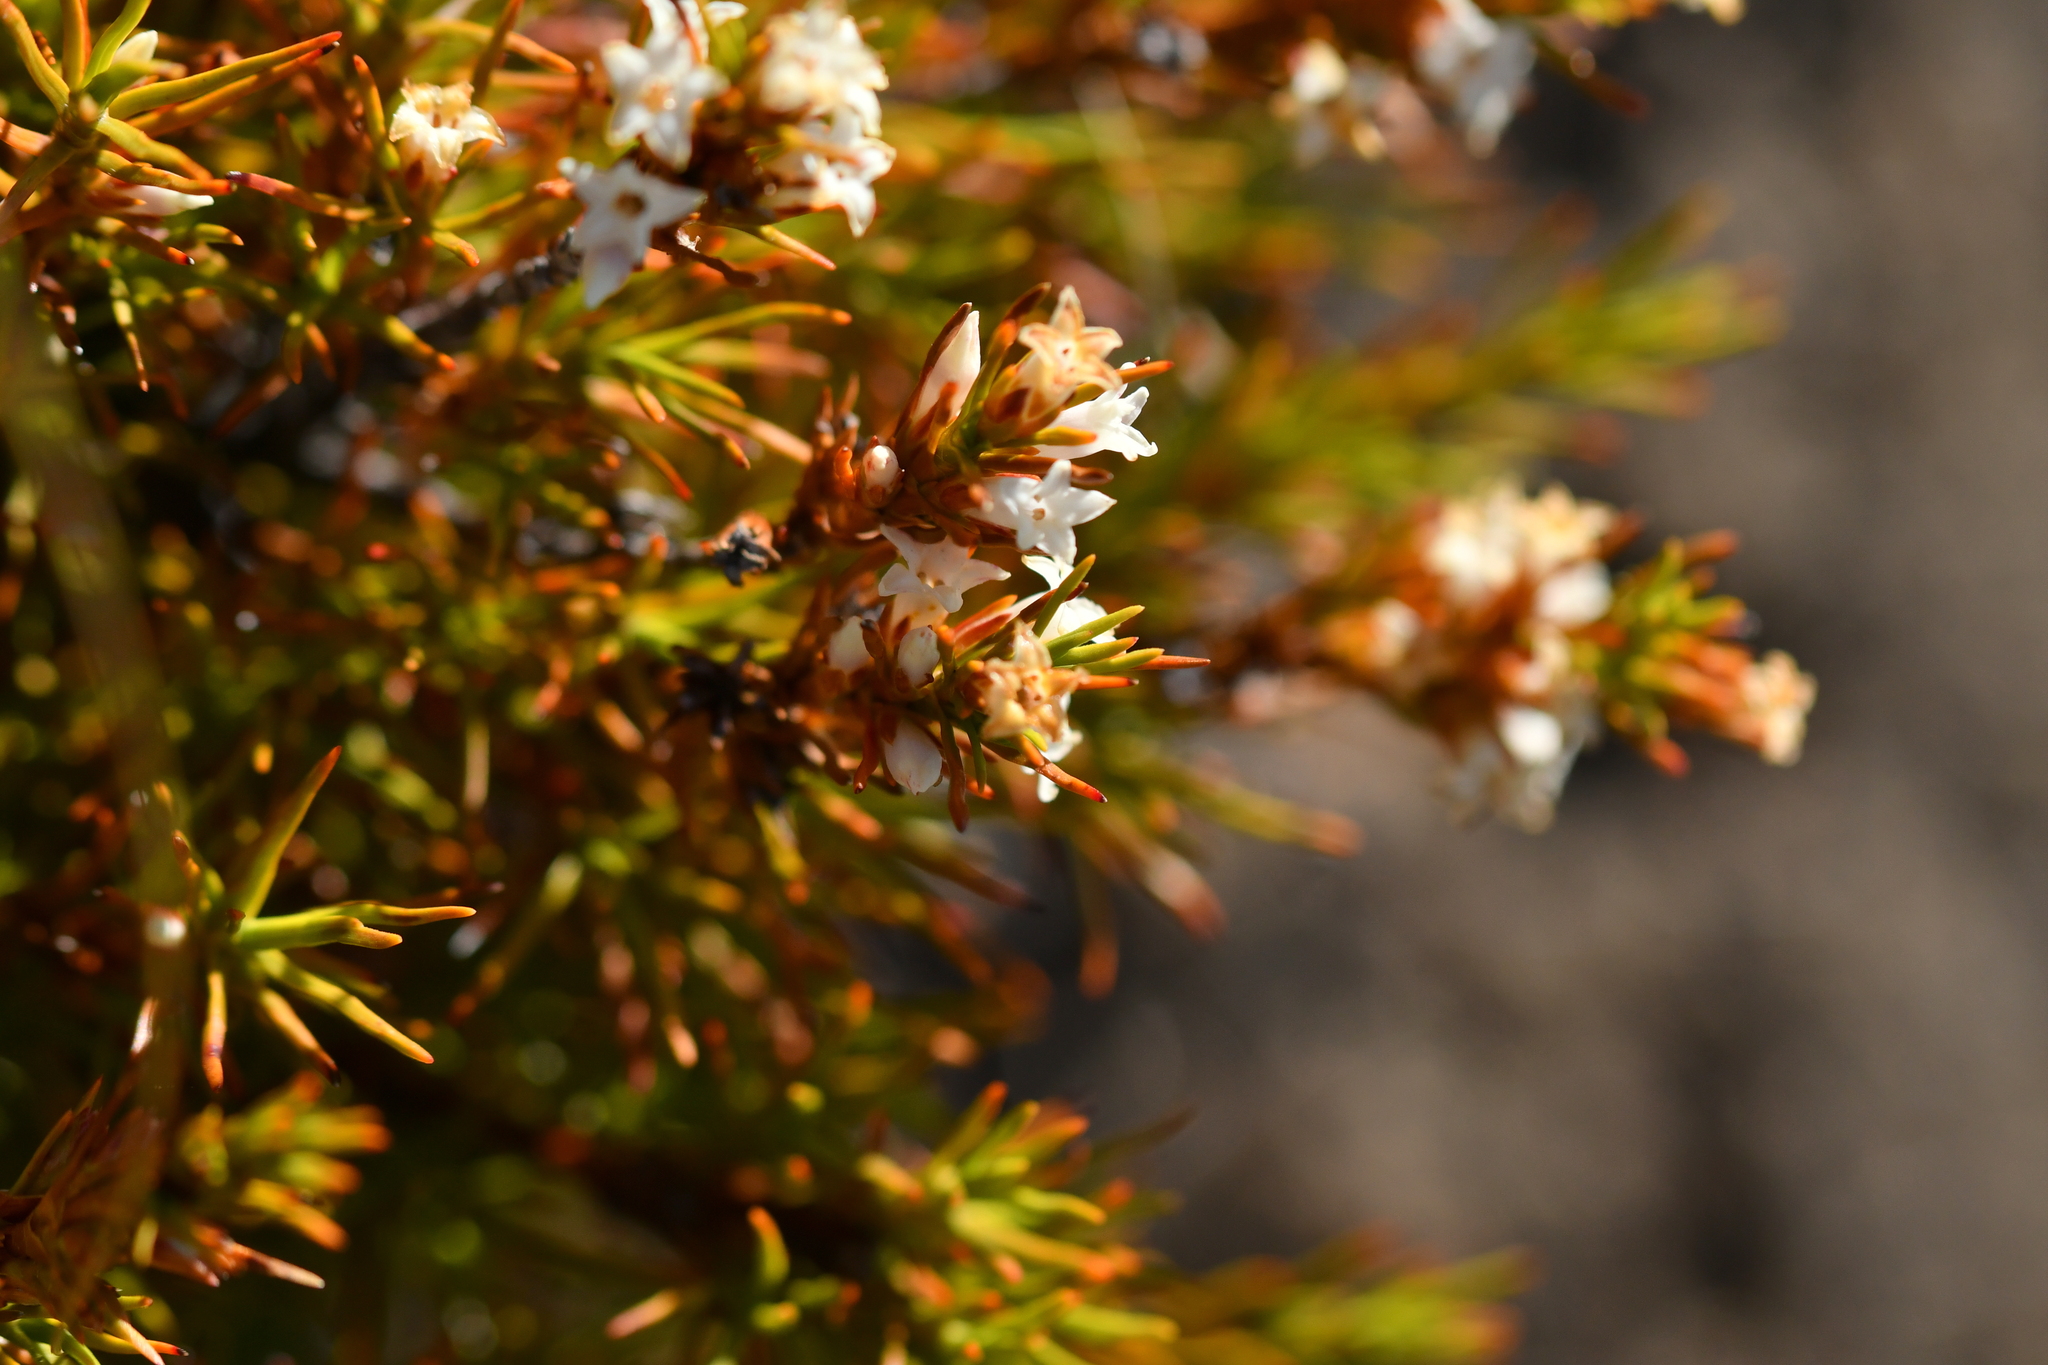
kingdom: Plantae
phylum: Tracheophyta
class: Magnoliopsida
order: Ericales
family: Ericaceae
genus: Dracophyllum
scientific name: Dracophyllum rosmarinifolium
